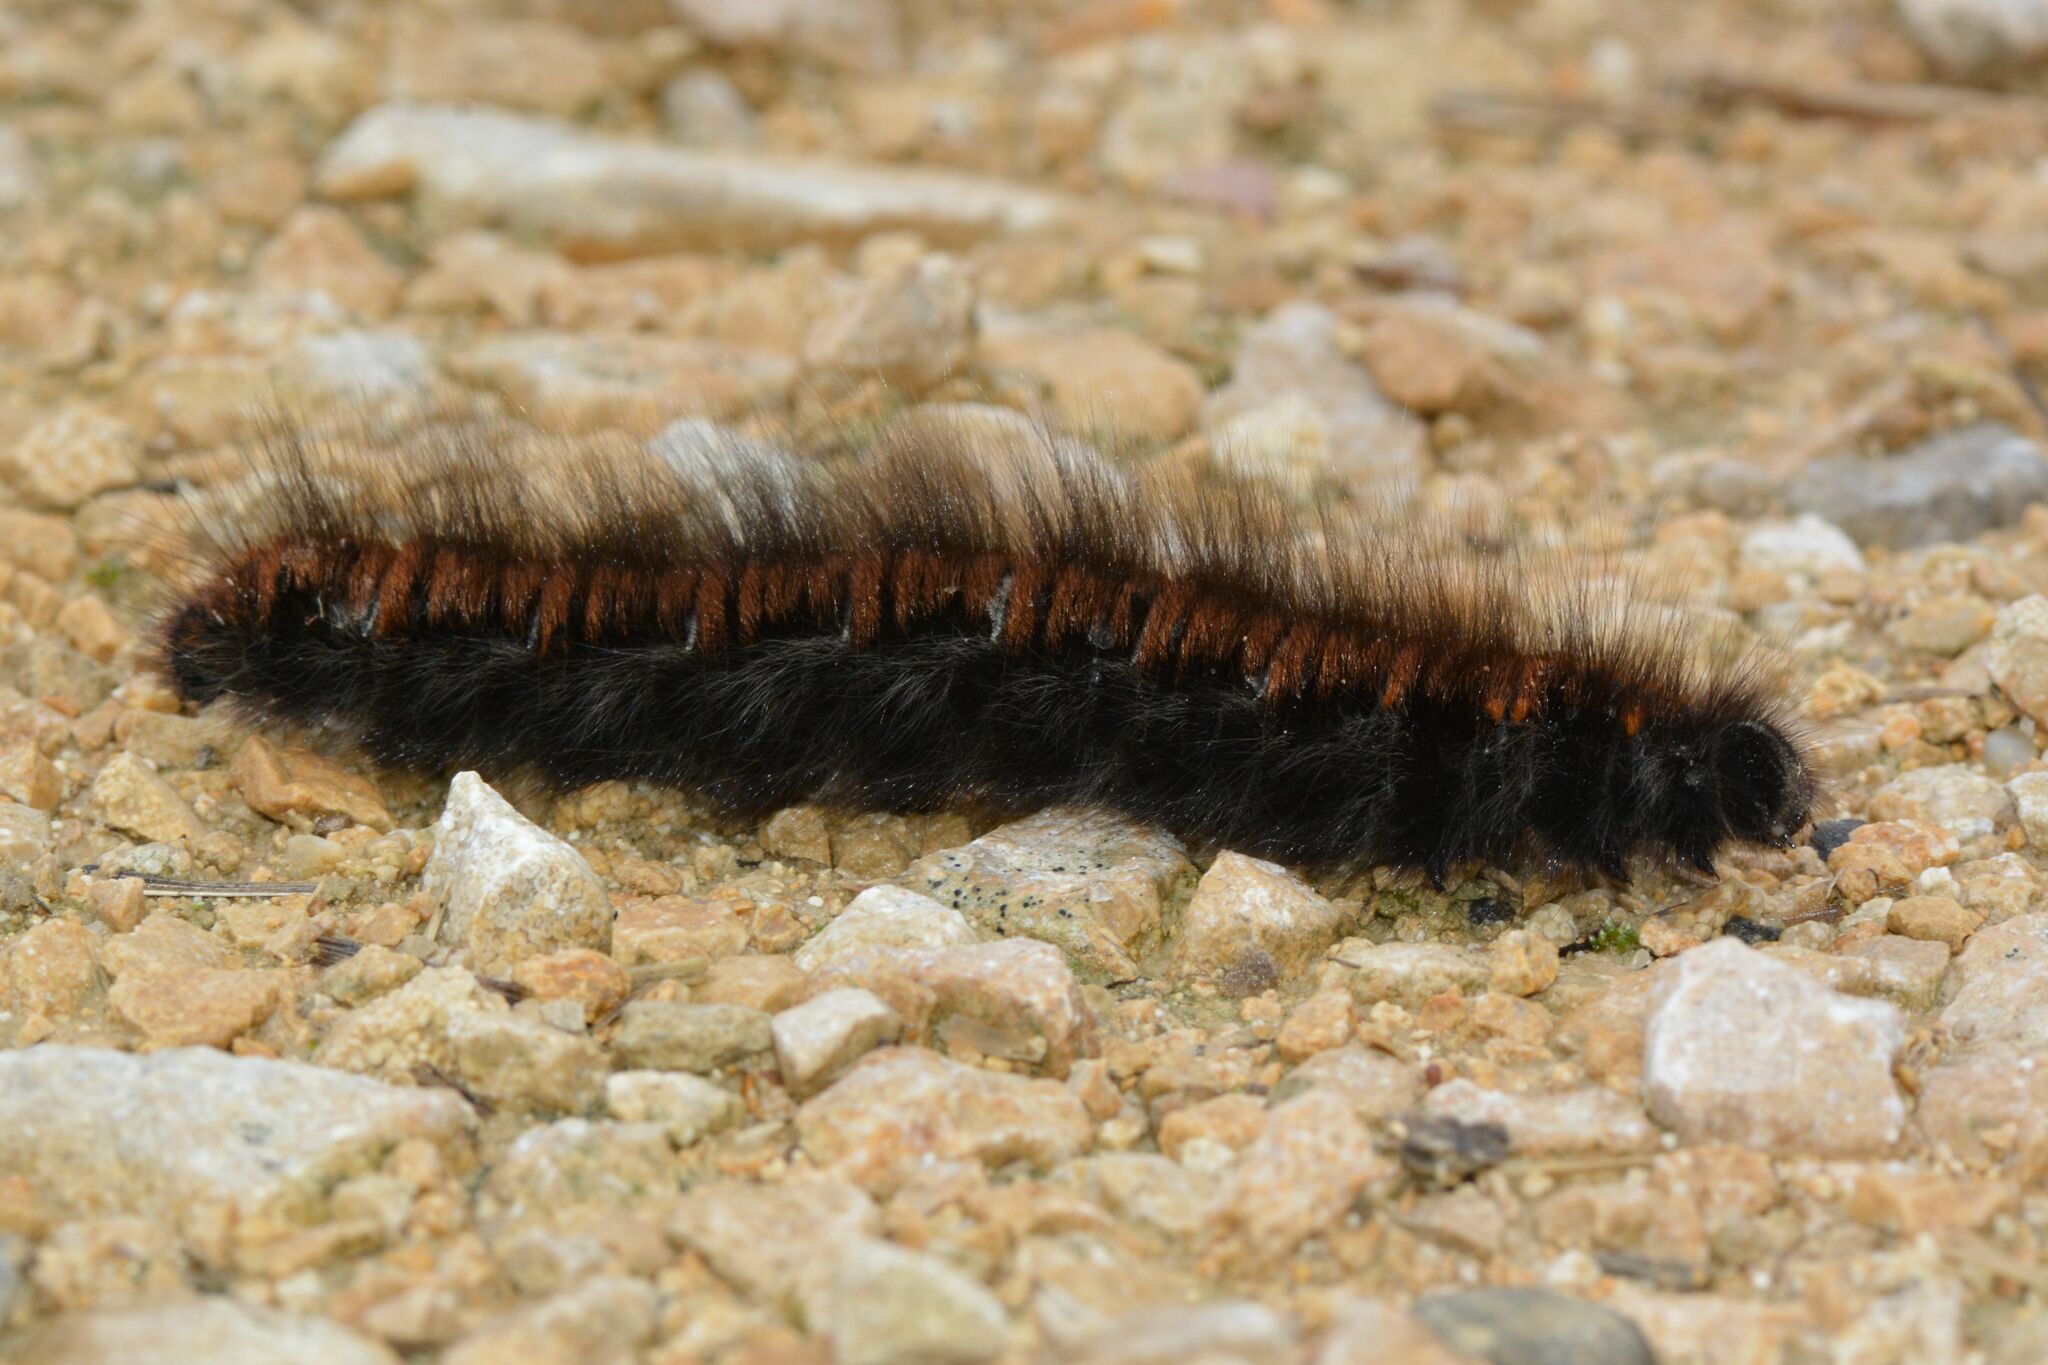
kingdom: Animalia
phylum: Arthropoda
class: Insecta
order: Lepidoptera
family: Lasiocampidae
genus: Macrothylacia
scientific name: Macrothylacia rubi
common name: Fox moth
